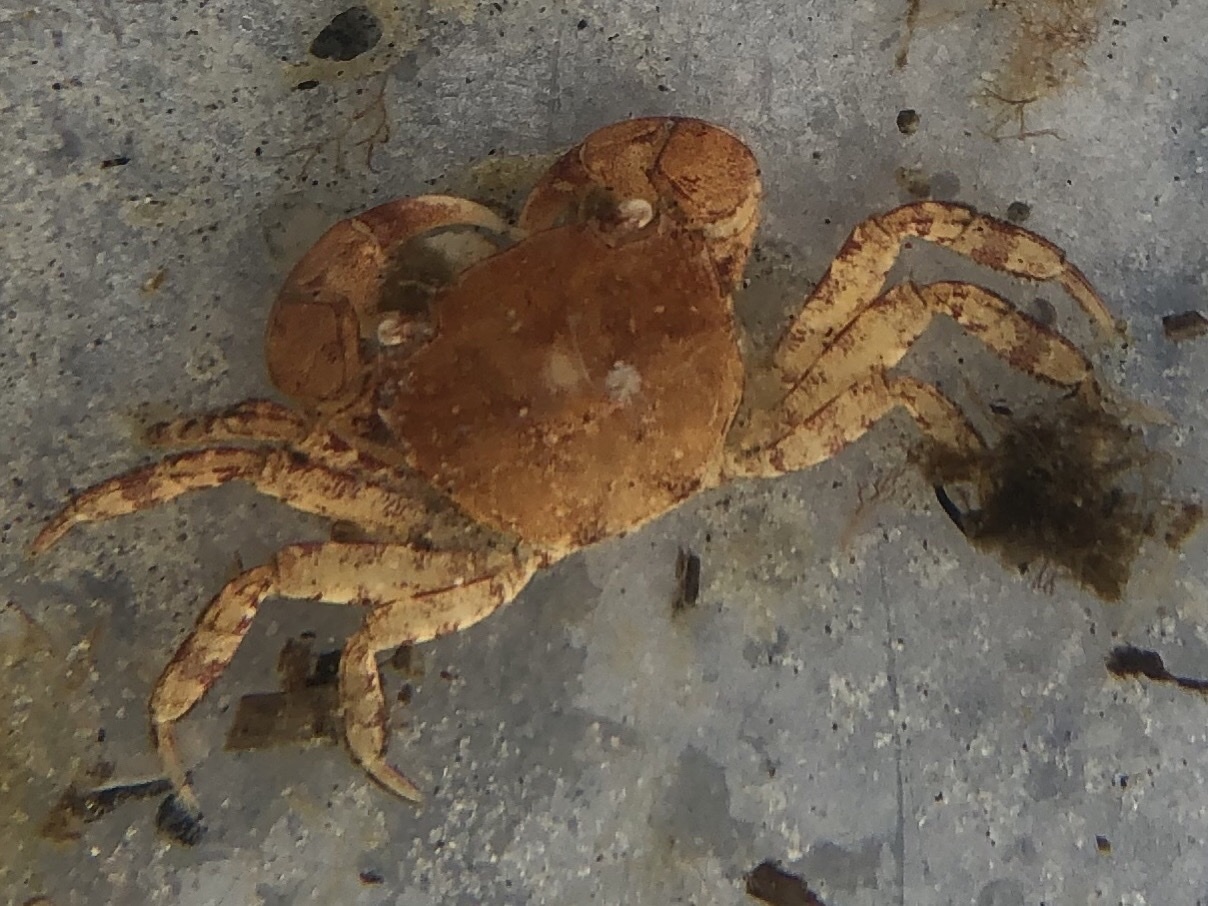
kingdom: Animalia
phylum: Arthropoda
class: Malacostraca
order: Decapoda
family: Varunidae
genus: Hemigrapsus
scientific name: Hemigrapsus takanoi
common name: Asian brush crab
